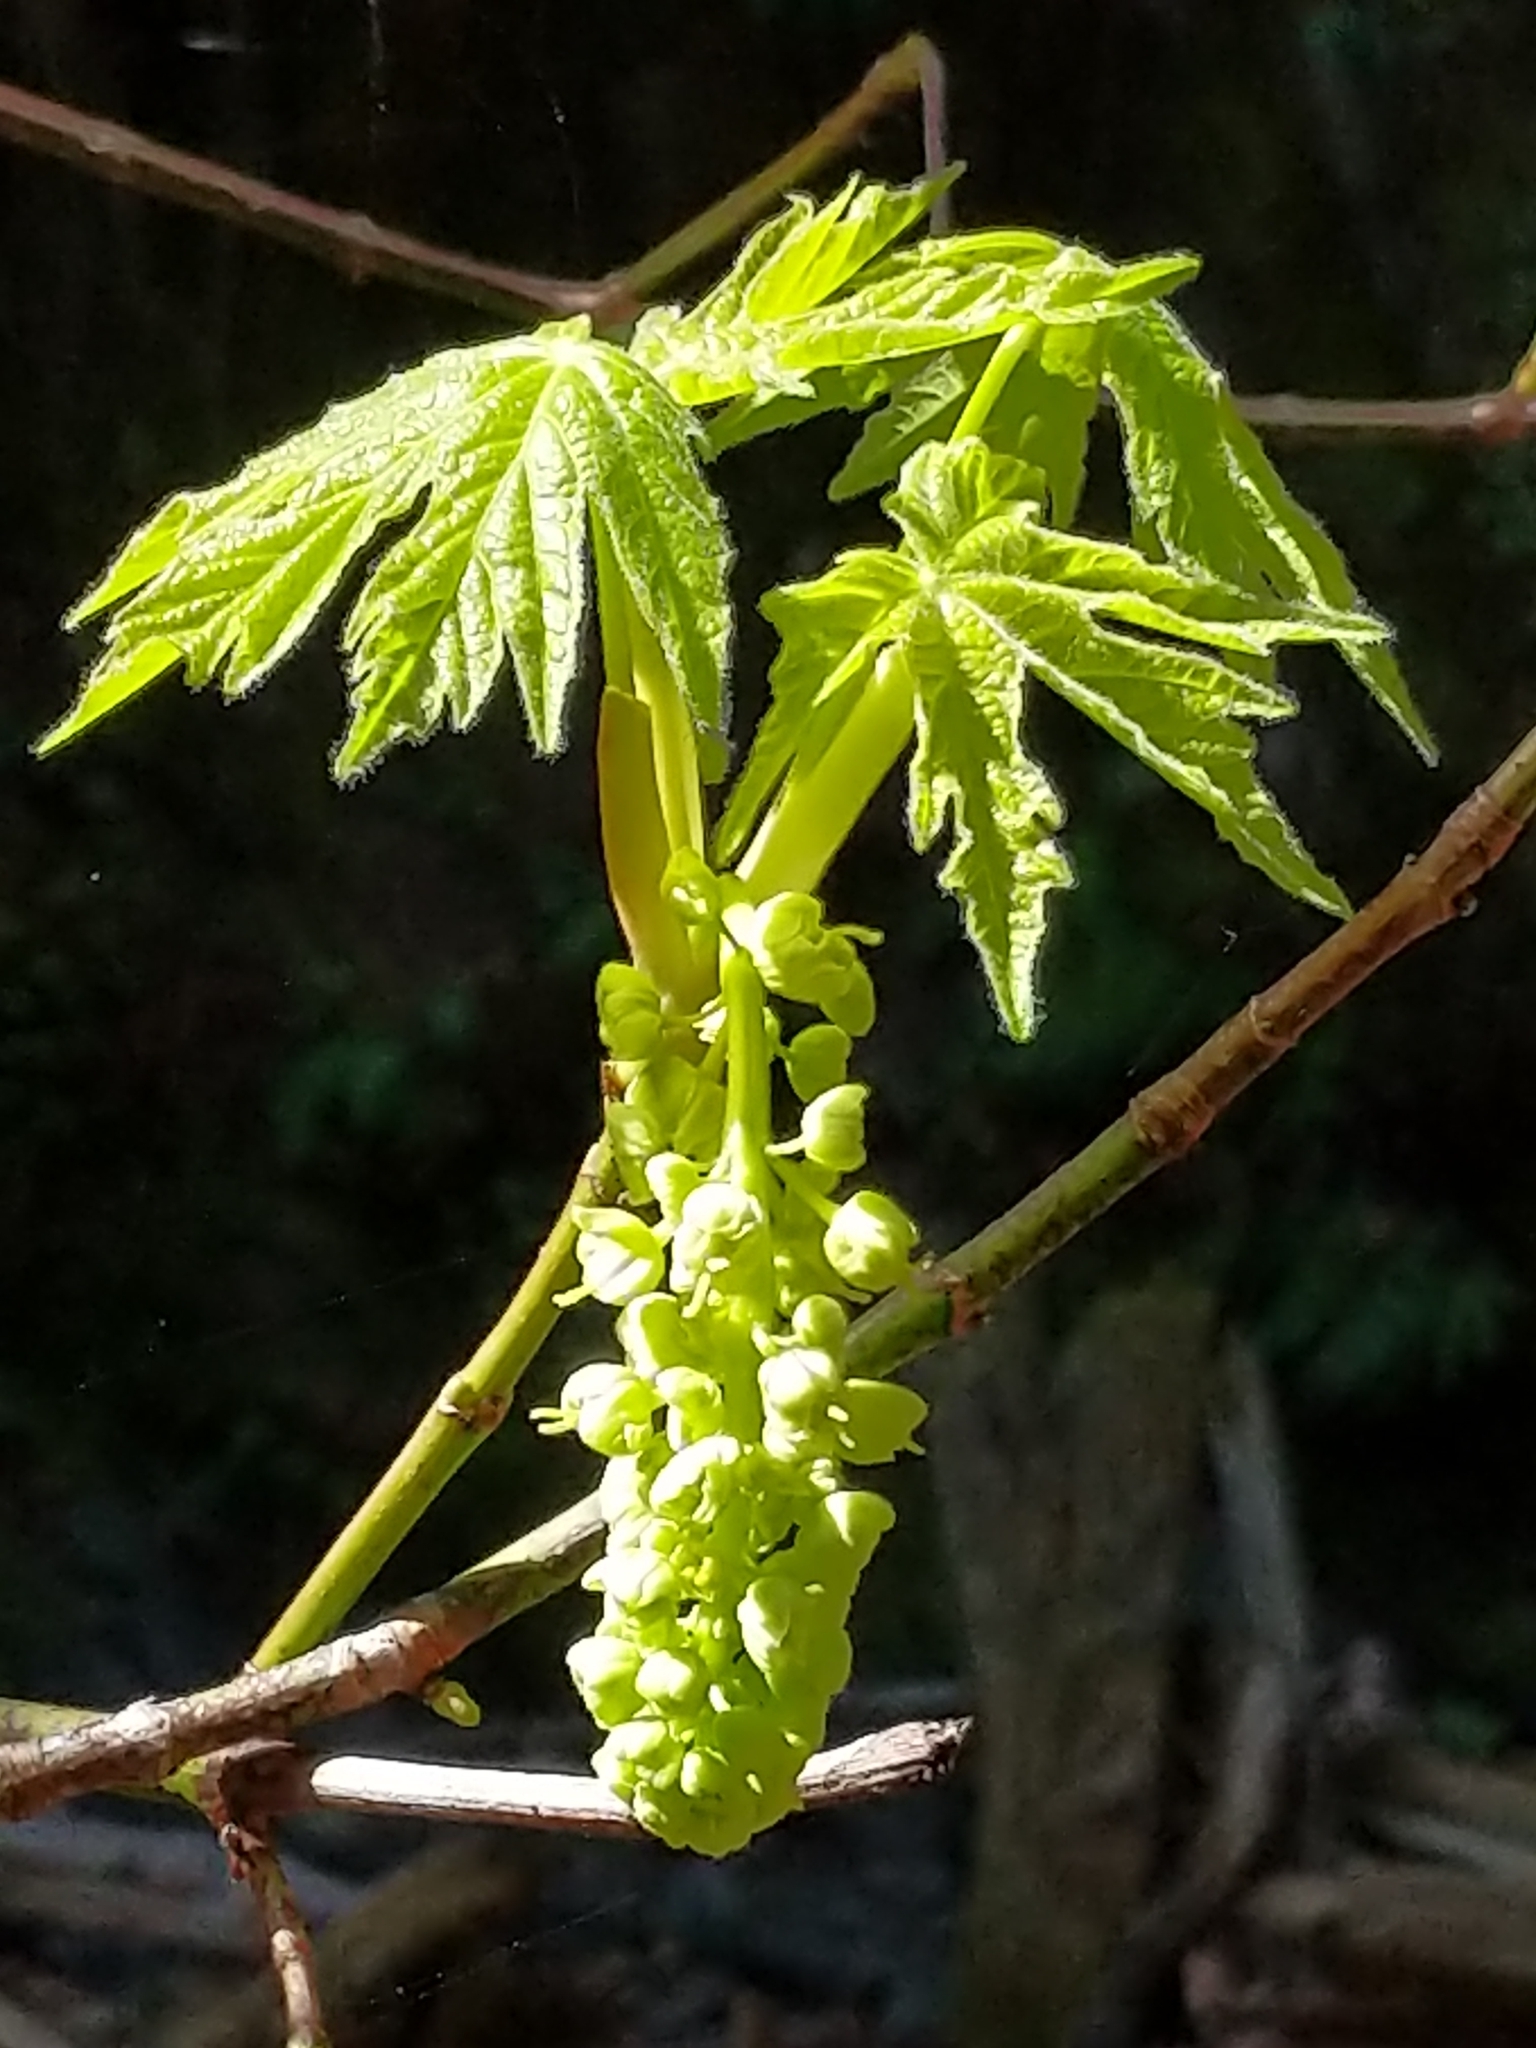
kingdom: Plantae
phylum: Tracheophyta
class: Magnoliopsida
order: Sapindales
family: Sapindaceae
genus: Acer
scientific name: Acer macrophyllum
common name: Oregon maple
